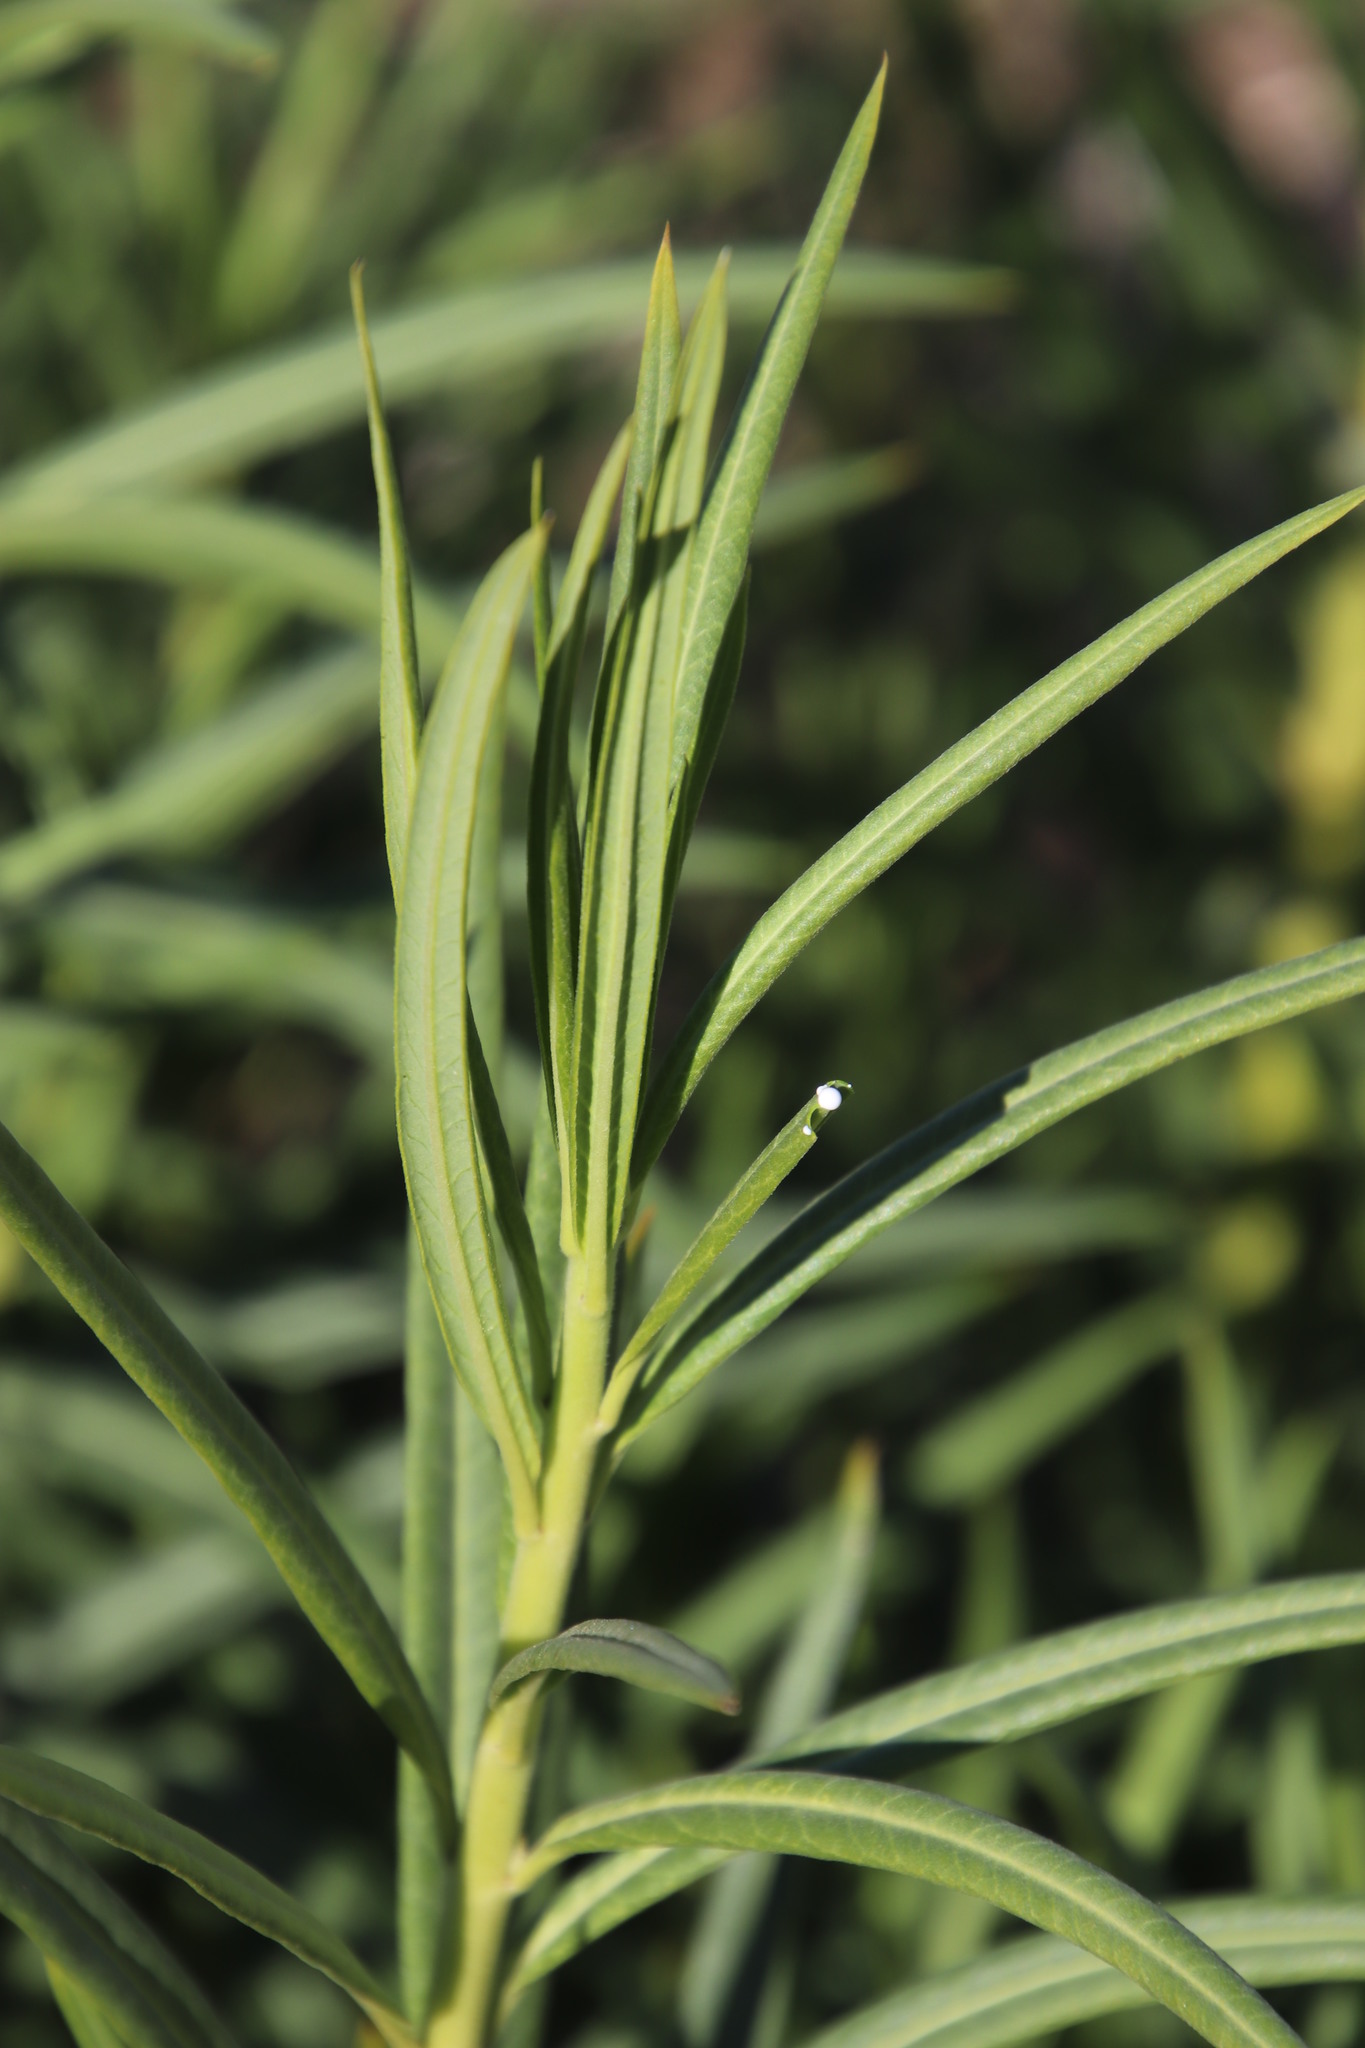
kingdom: Plantae
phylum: Tracheophyta
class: Magnoliopsida
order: Gentianales
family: Apocynaceae
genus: Gomphocarpus
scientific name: Gomphocarpus physocarpus
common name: Balloon cotton bush
